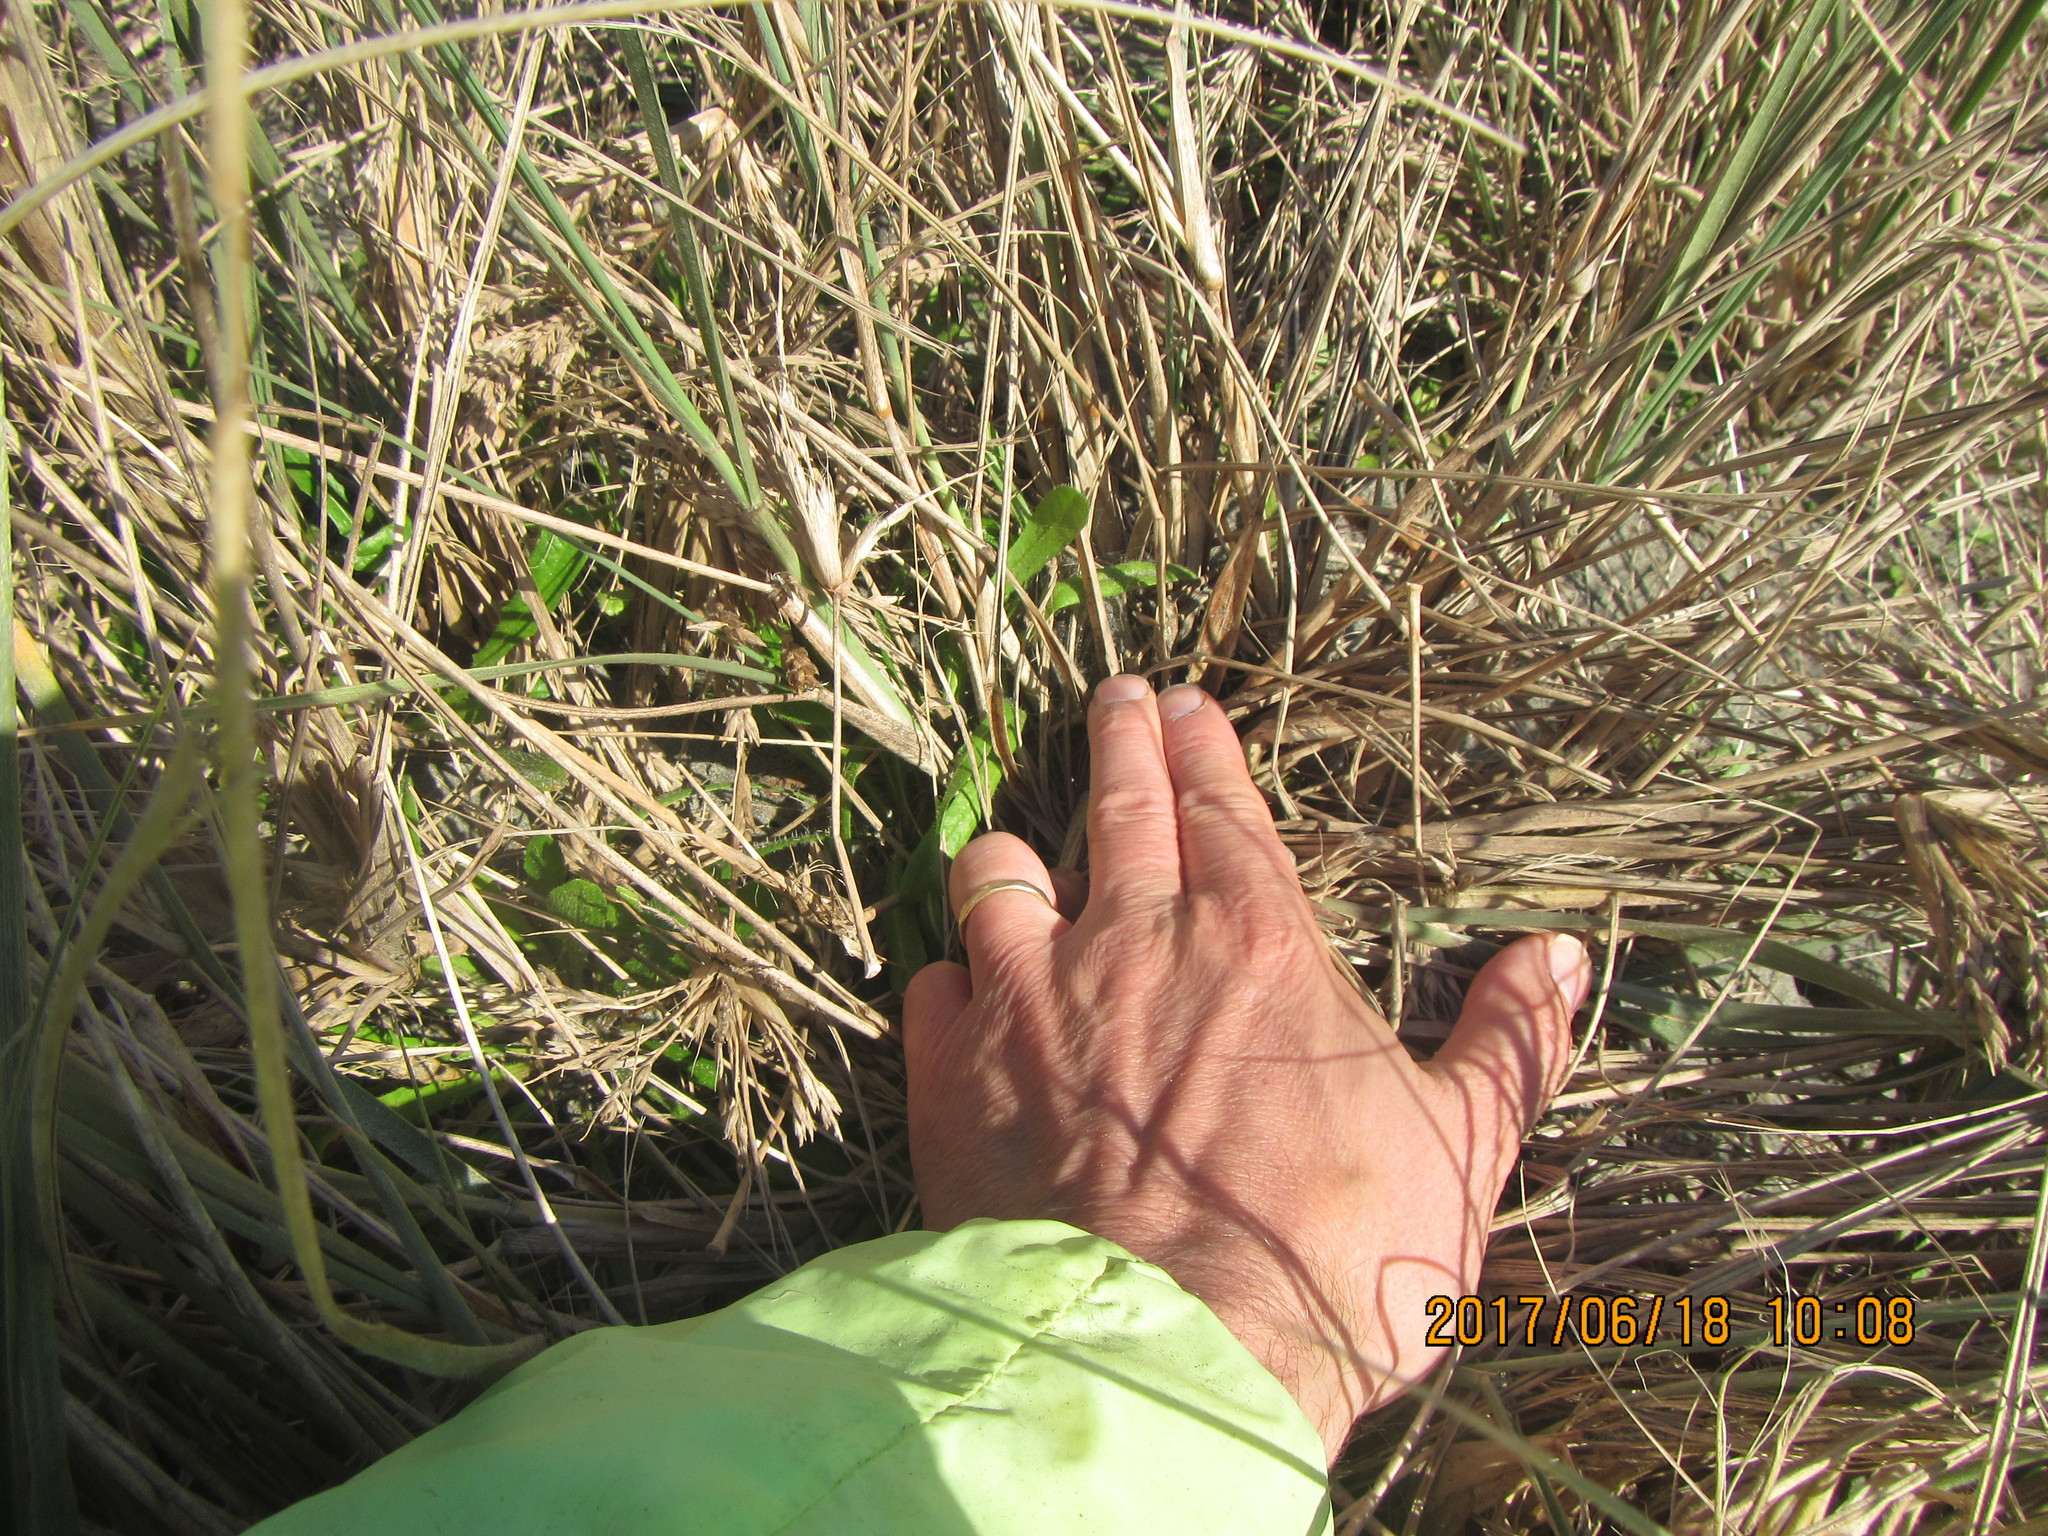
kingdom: Animalia
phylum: Arthropoda
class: Arachnida
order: Araneae
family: Theridiidae
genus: Latrodectus
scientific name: Latrodectus katipo
